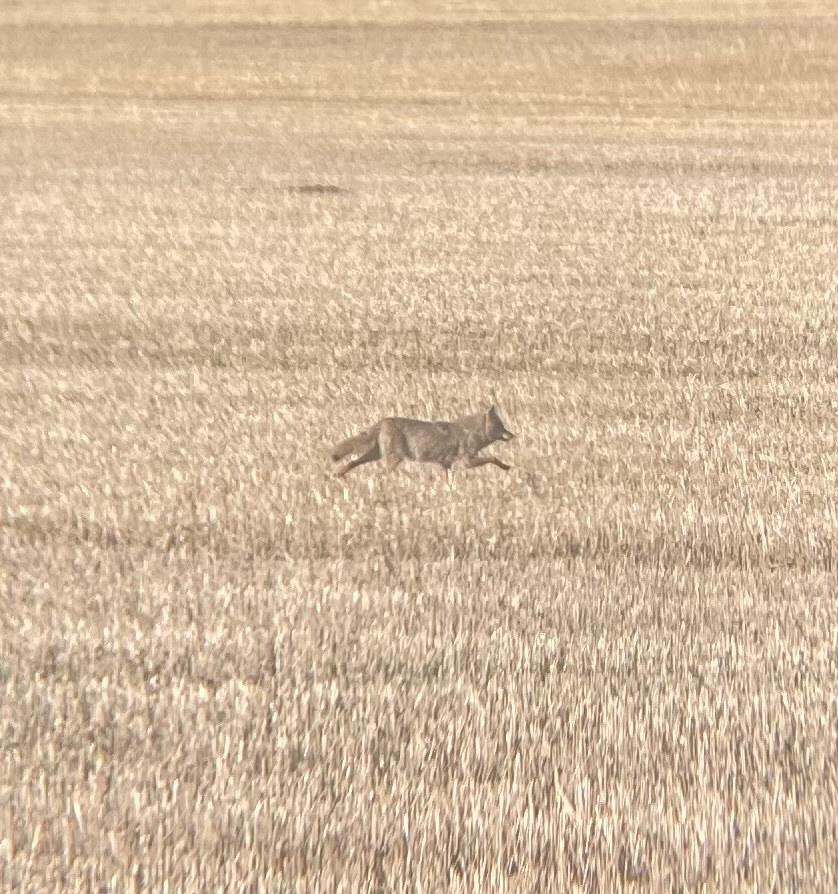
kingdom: Animalia
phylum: Chordata
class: Mammalia
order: Carnivora
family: Canidae
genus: Canis
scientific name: Canis latrans
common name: Coyote
